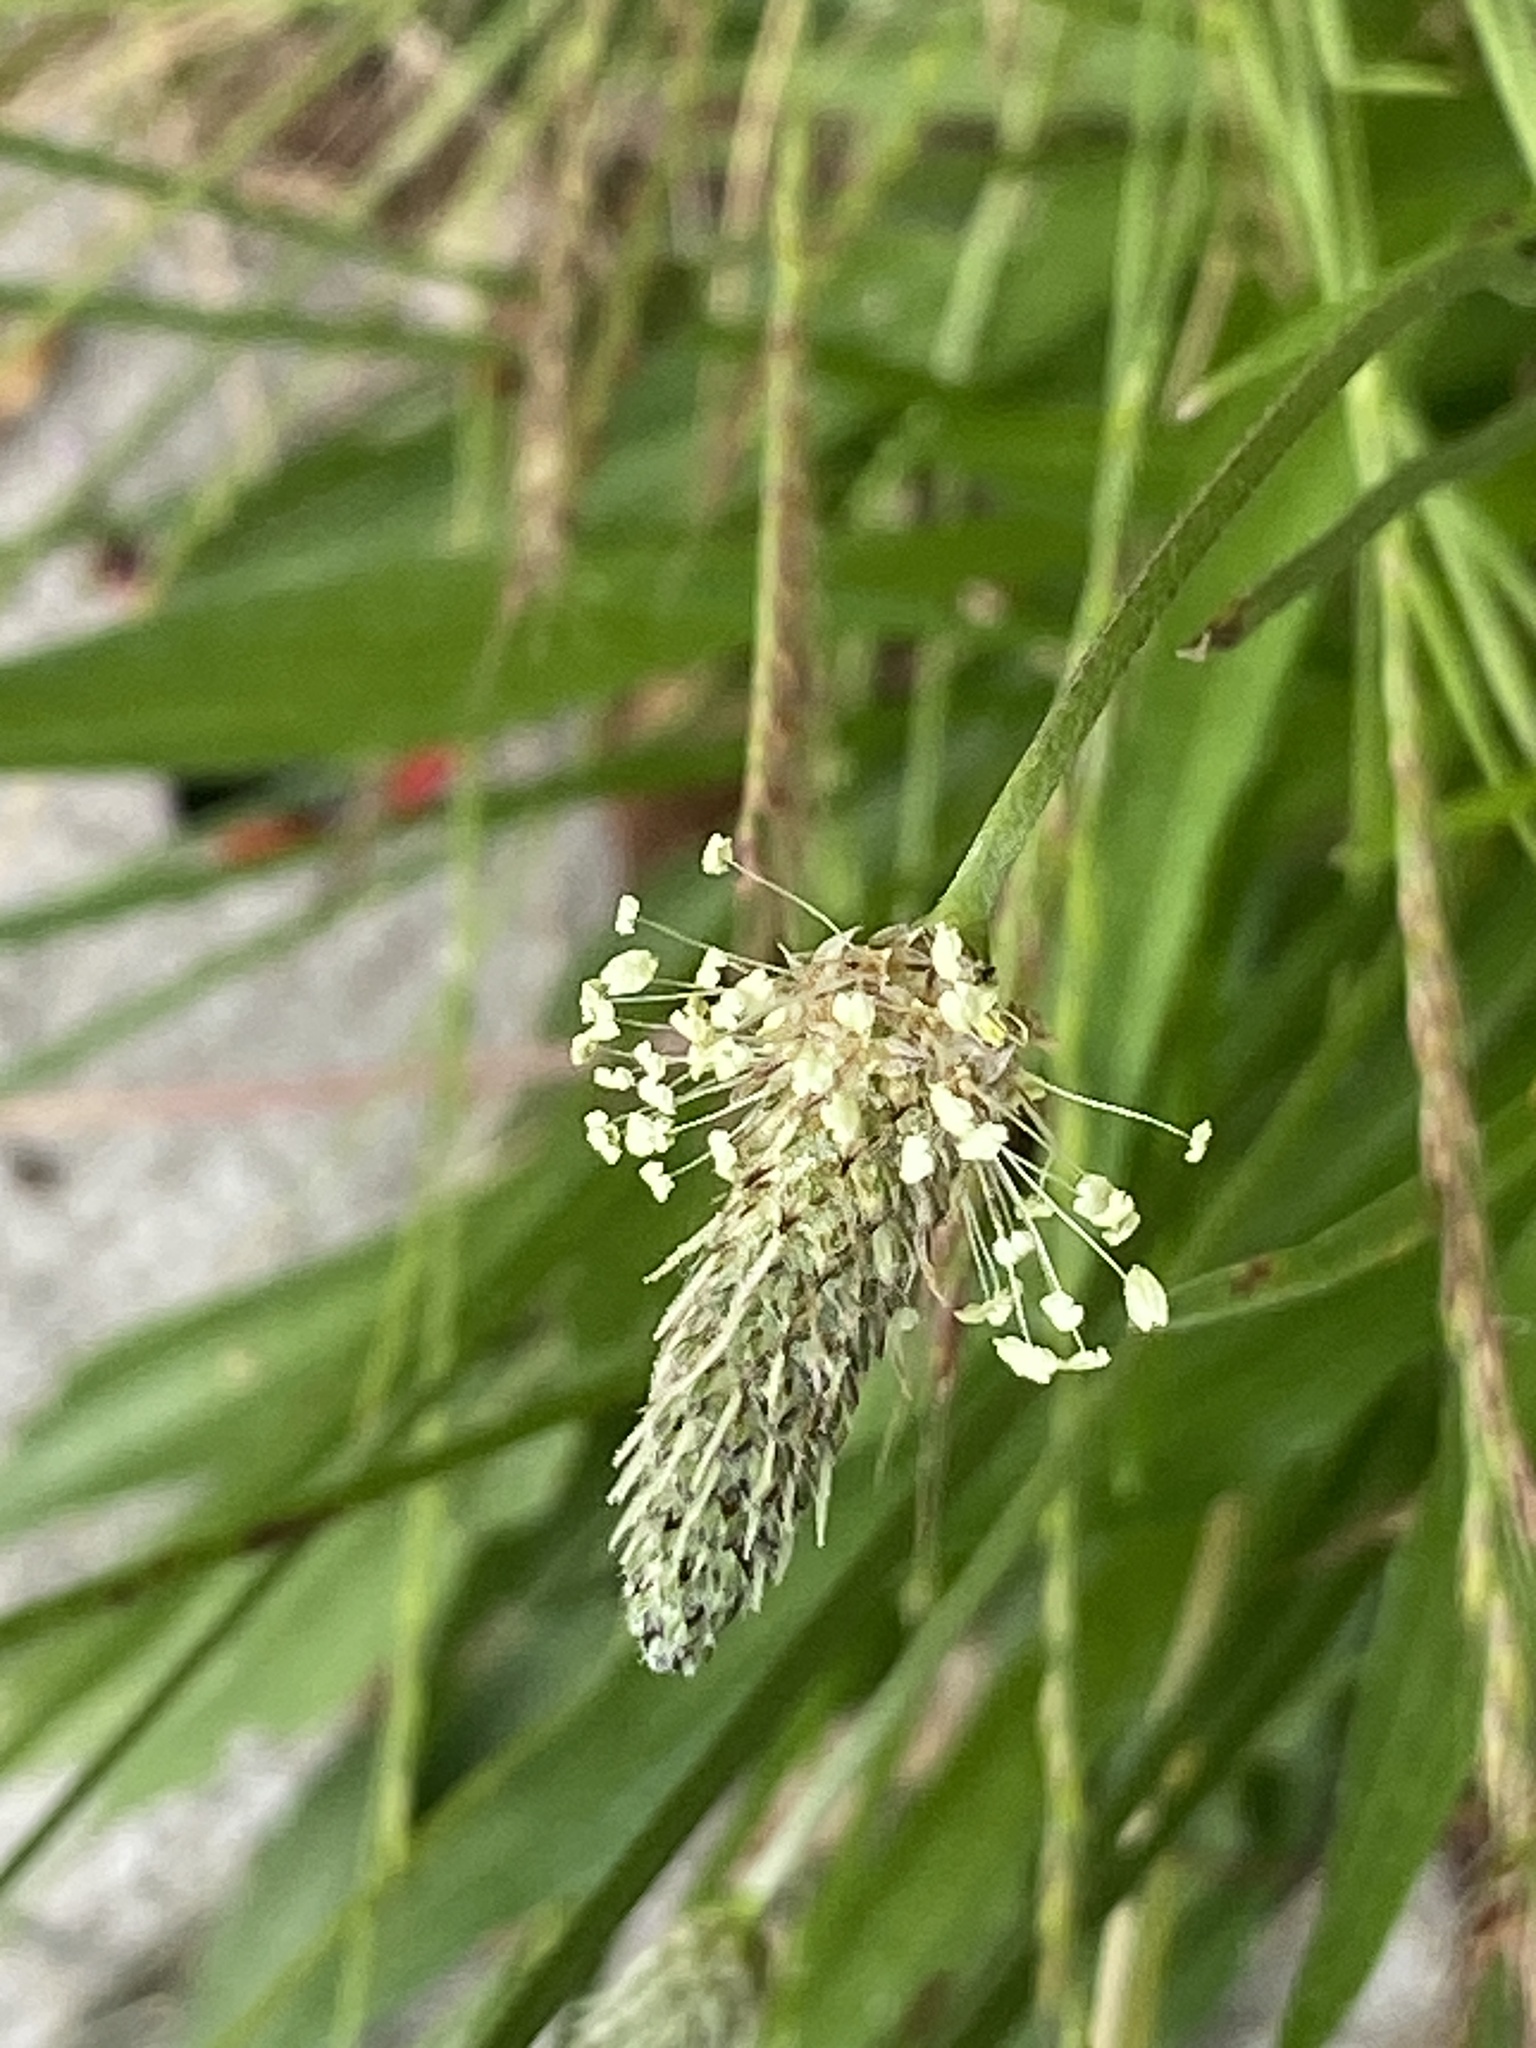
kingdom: Plantae
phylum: Tracheophyta
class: Magnoliopsida
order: Lamiales
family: Plantaginaceae
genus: Plantago
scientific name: Plantago lanceolata
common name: Ribwort plantain
